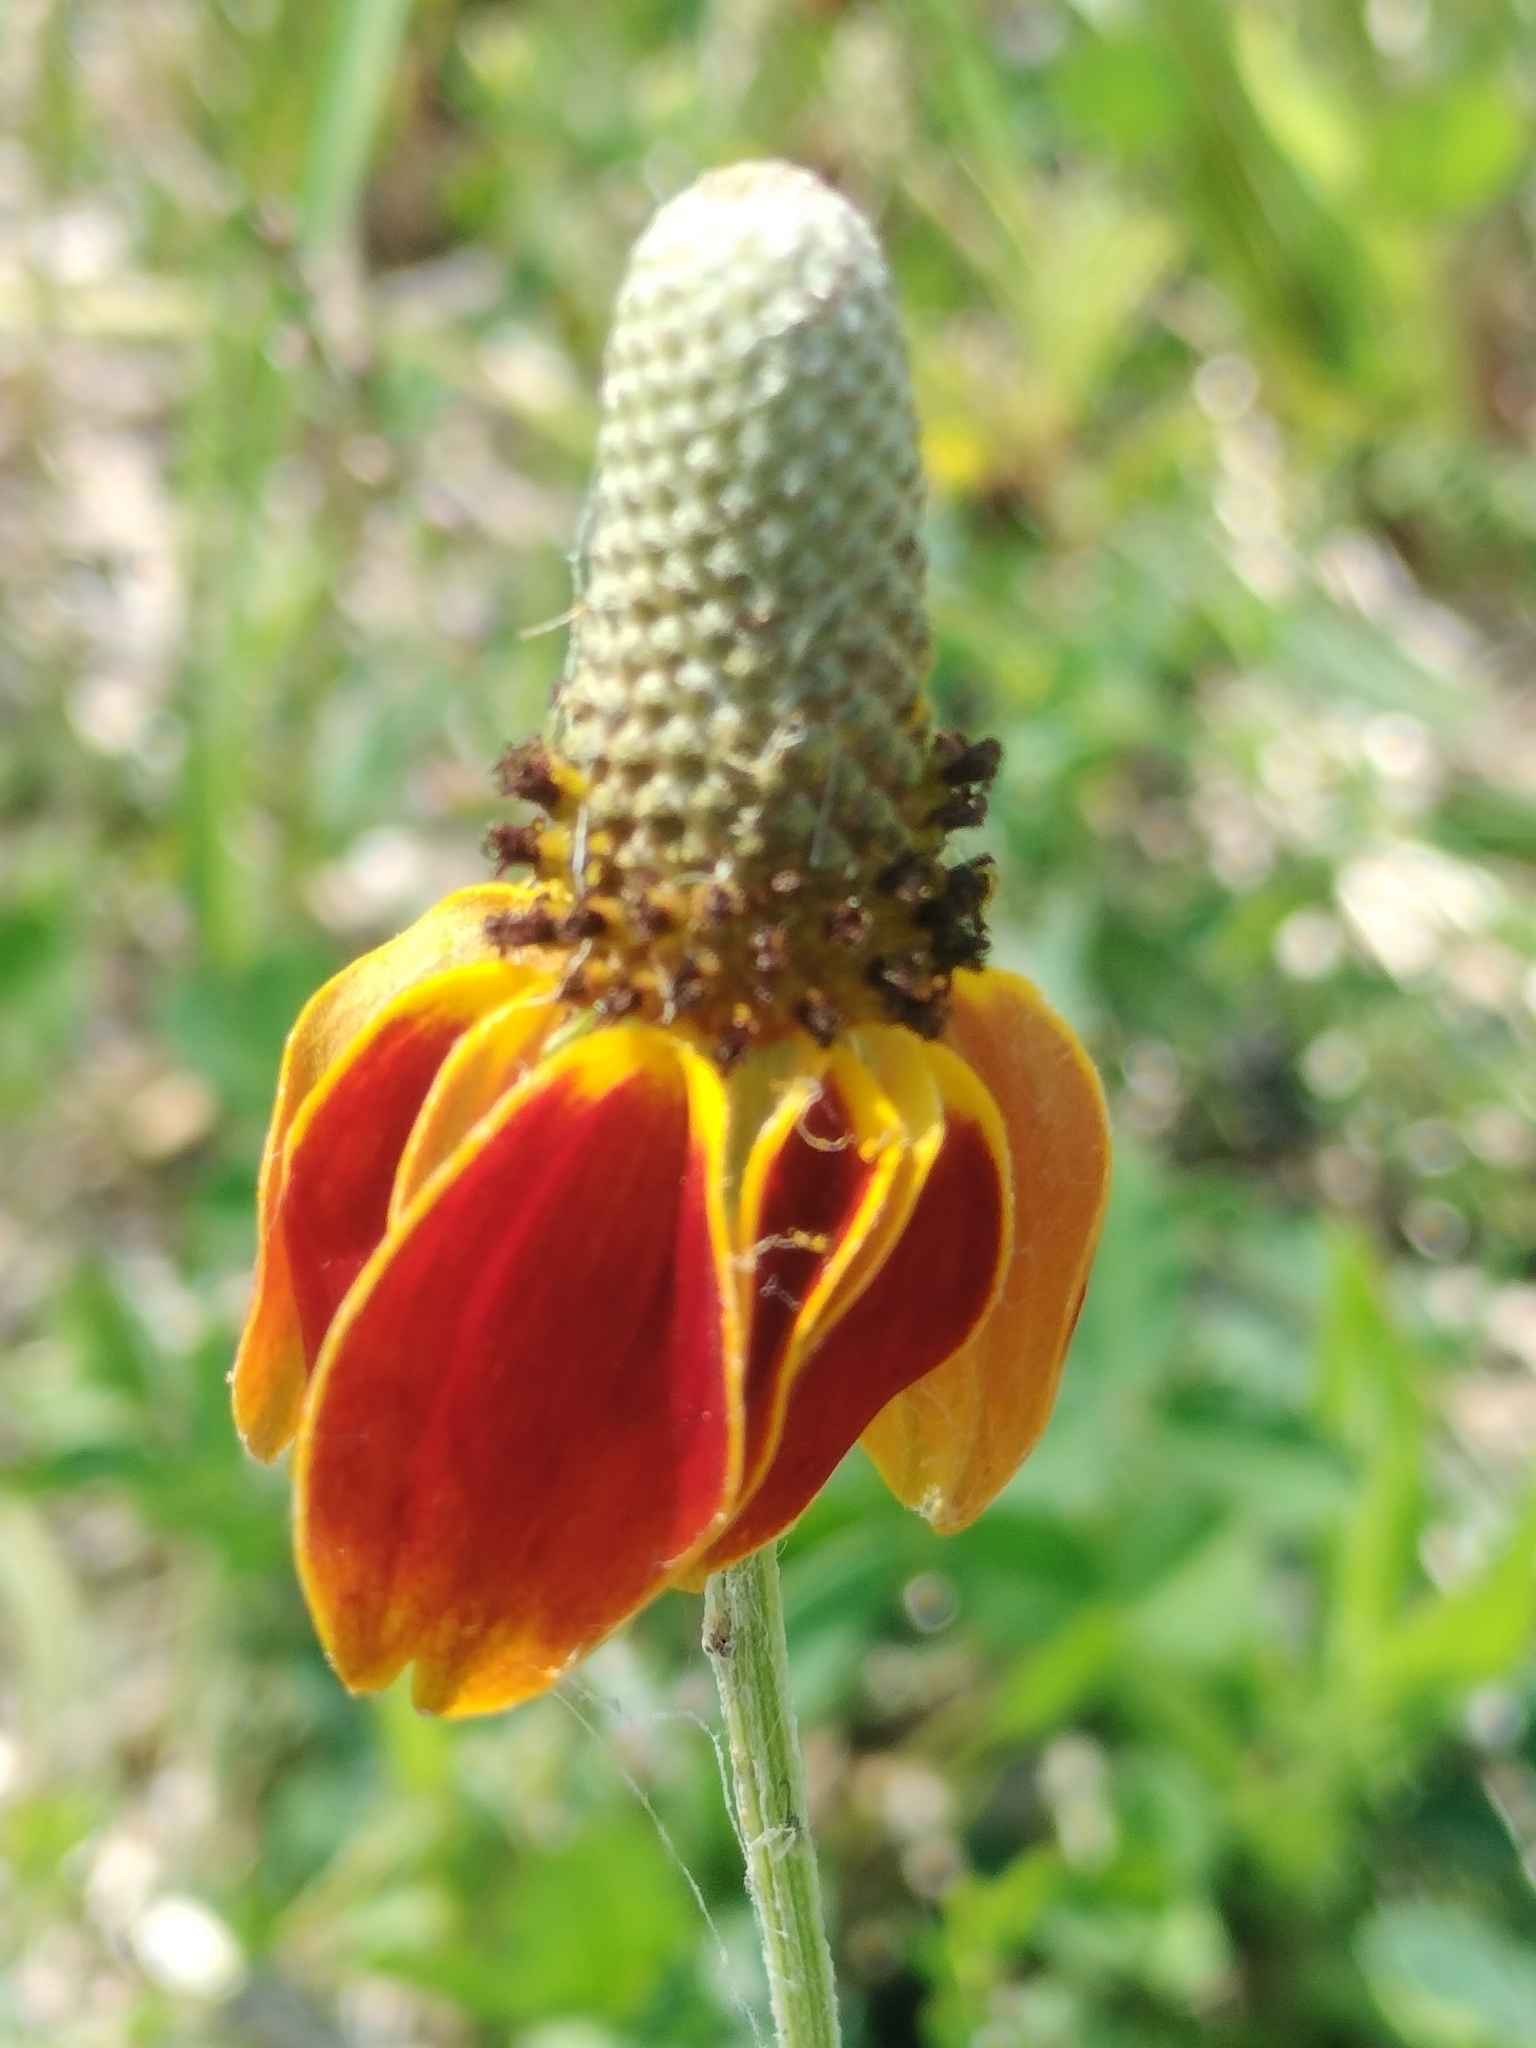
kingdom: Plantae
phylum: Tracheophyta
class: Magnoliopsida
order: Asterales
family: Asteraceae
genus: Ratibida
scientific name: Ratibida columnifera
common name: Prairie coneflower
